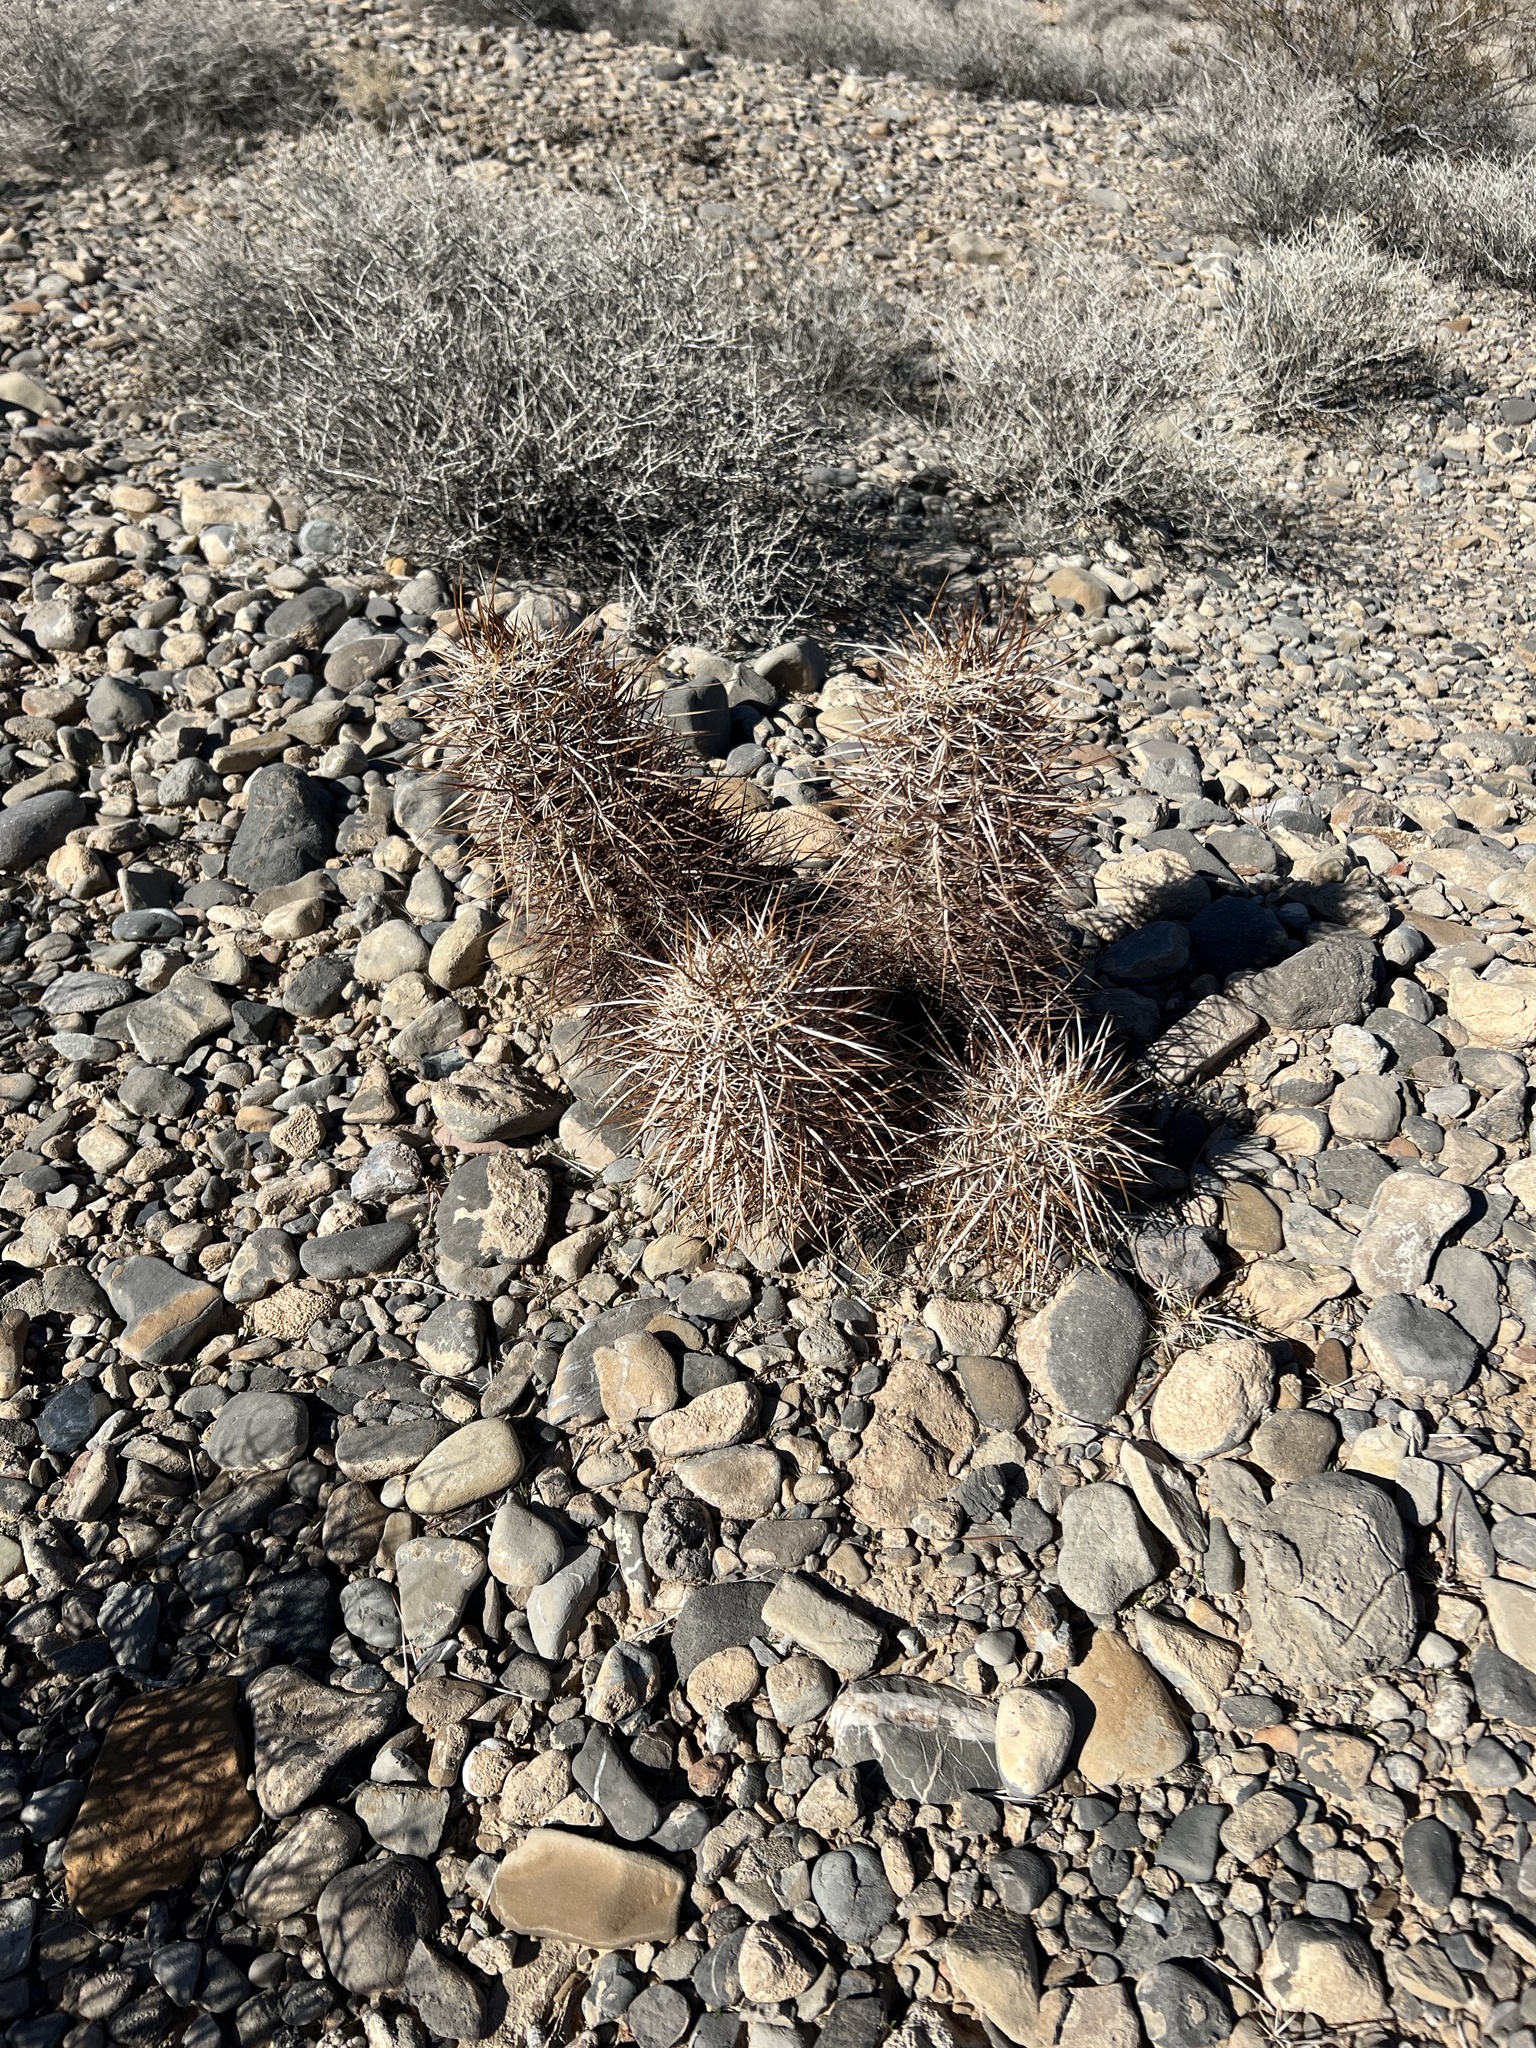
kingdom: Plantae
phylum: Tracheophyta
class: Magnoliopsida
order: Caryophyllales
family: Cactaceae
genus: Echinocereus
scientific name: Echinocereus engelmannii
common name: Engelmann's hedgehog cactus
